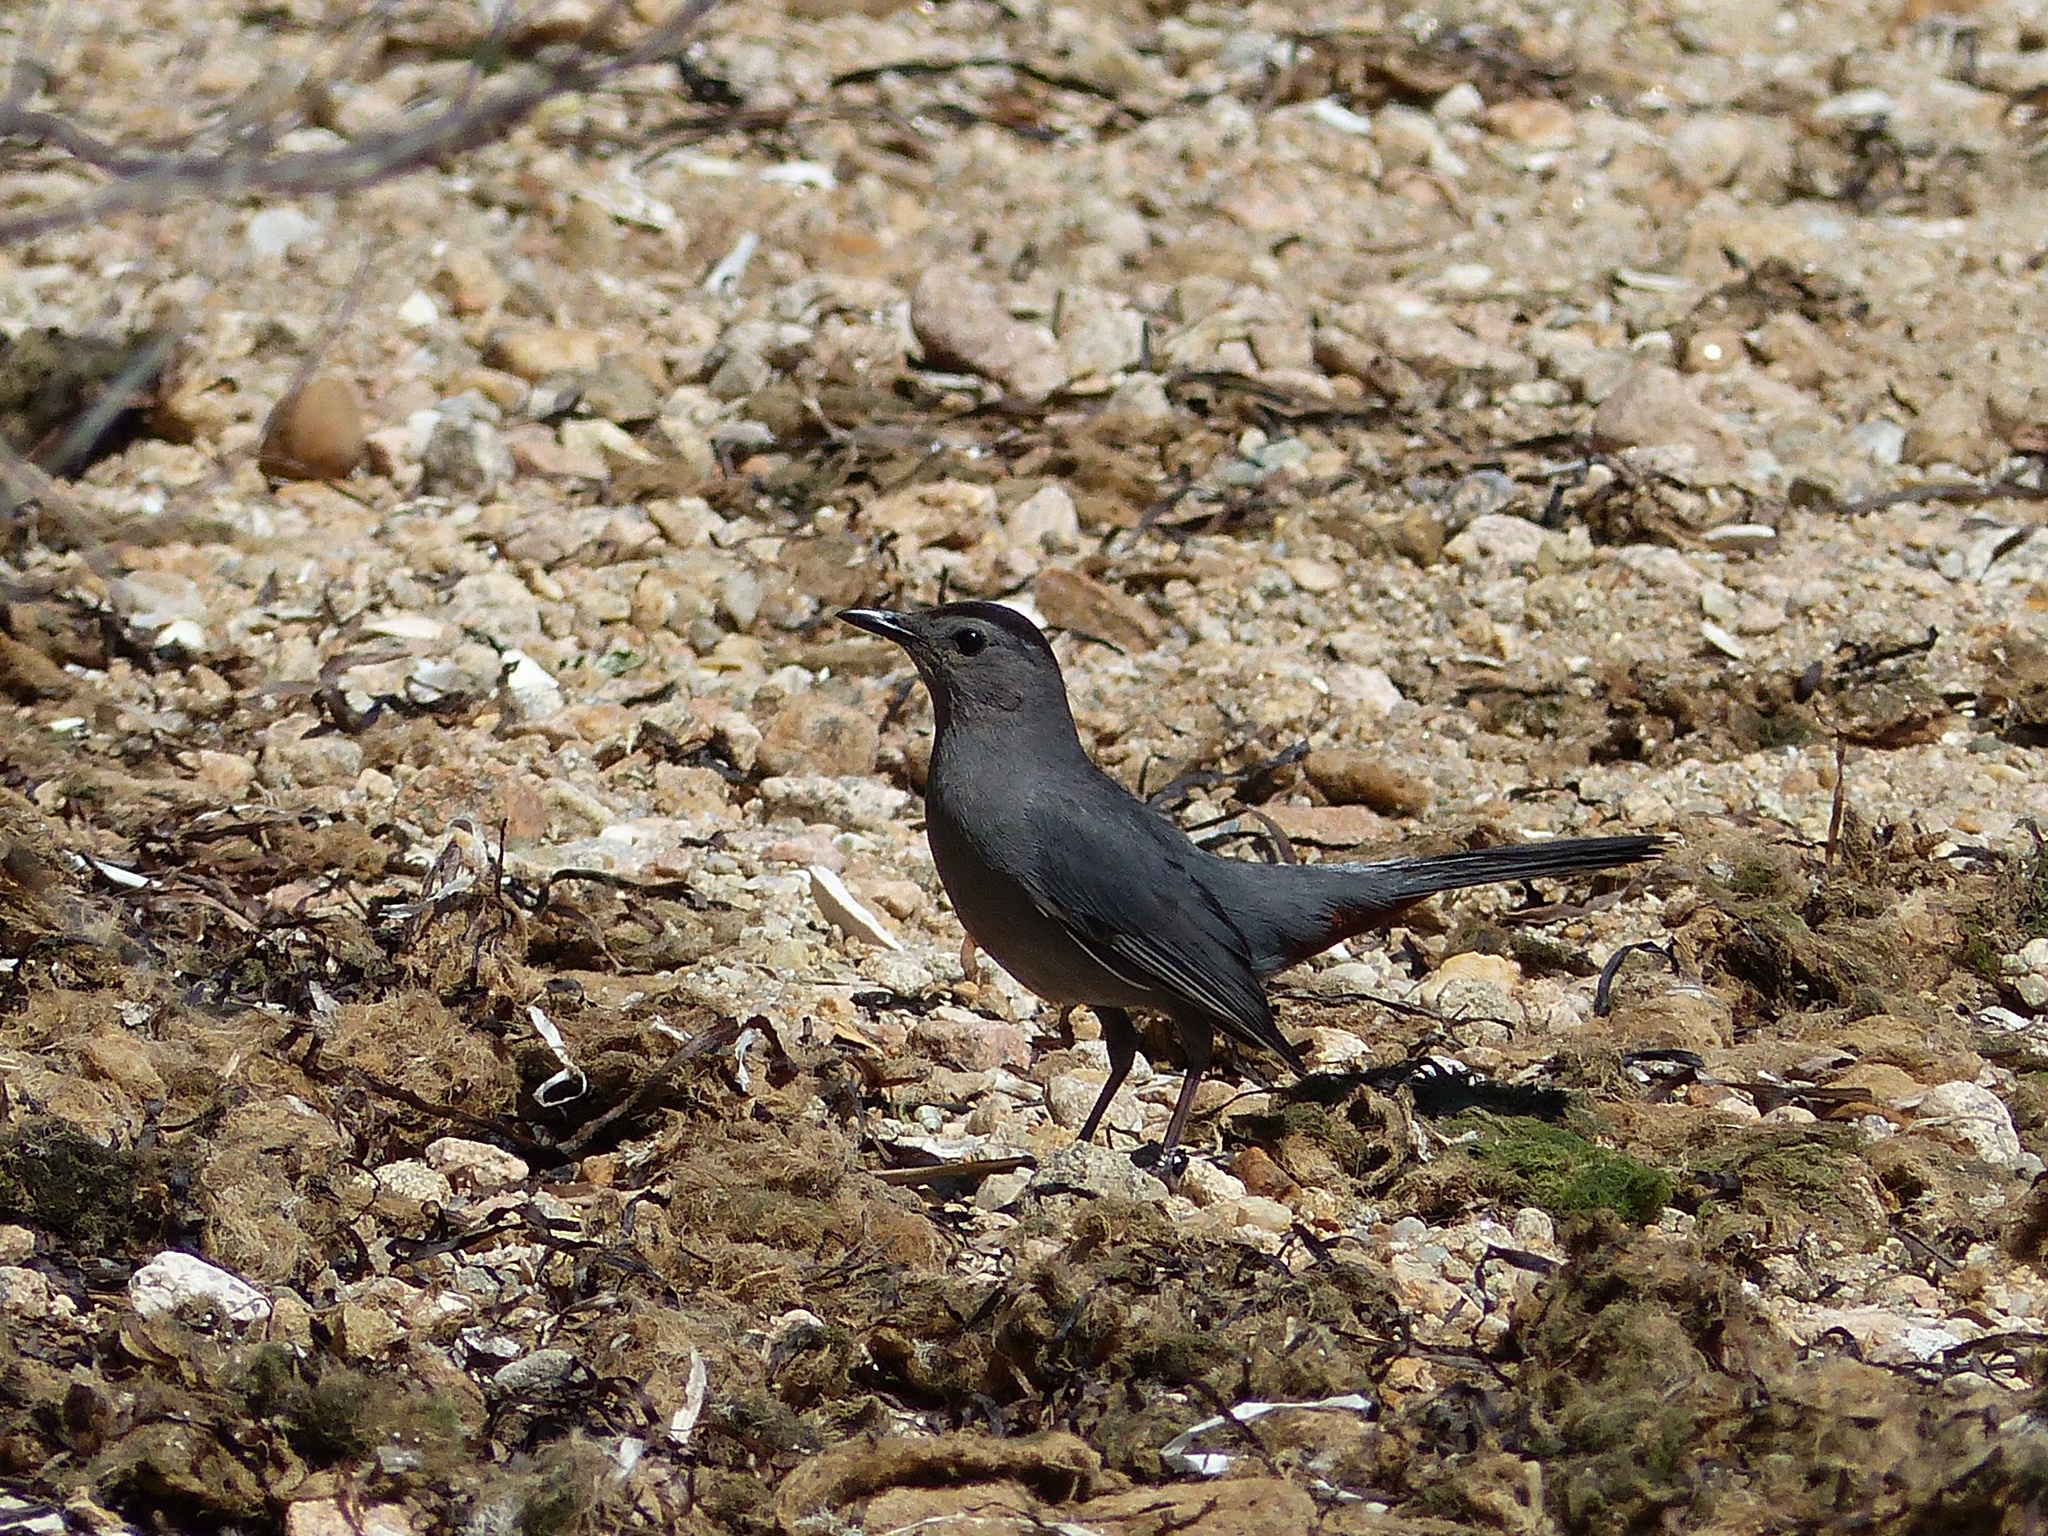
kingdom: Animalia
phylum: Chordata
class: Aves
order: Passeriformes
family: Mimidae
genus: Dumetella
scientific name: Dumetella carolinensis
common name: Gray catbird
